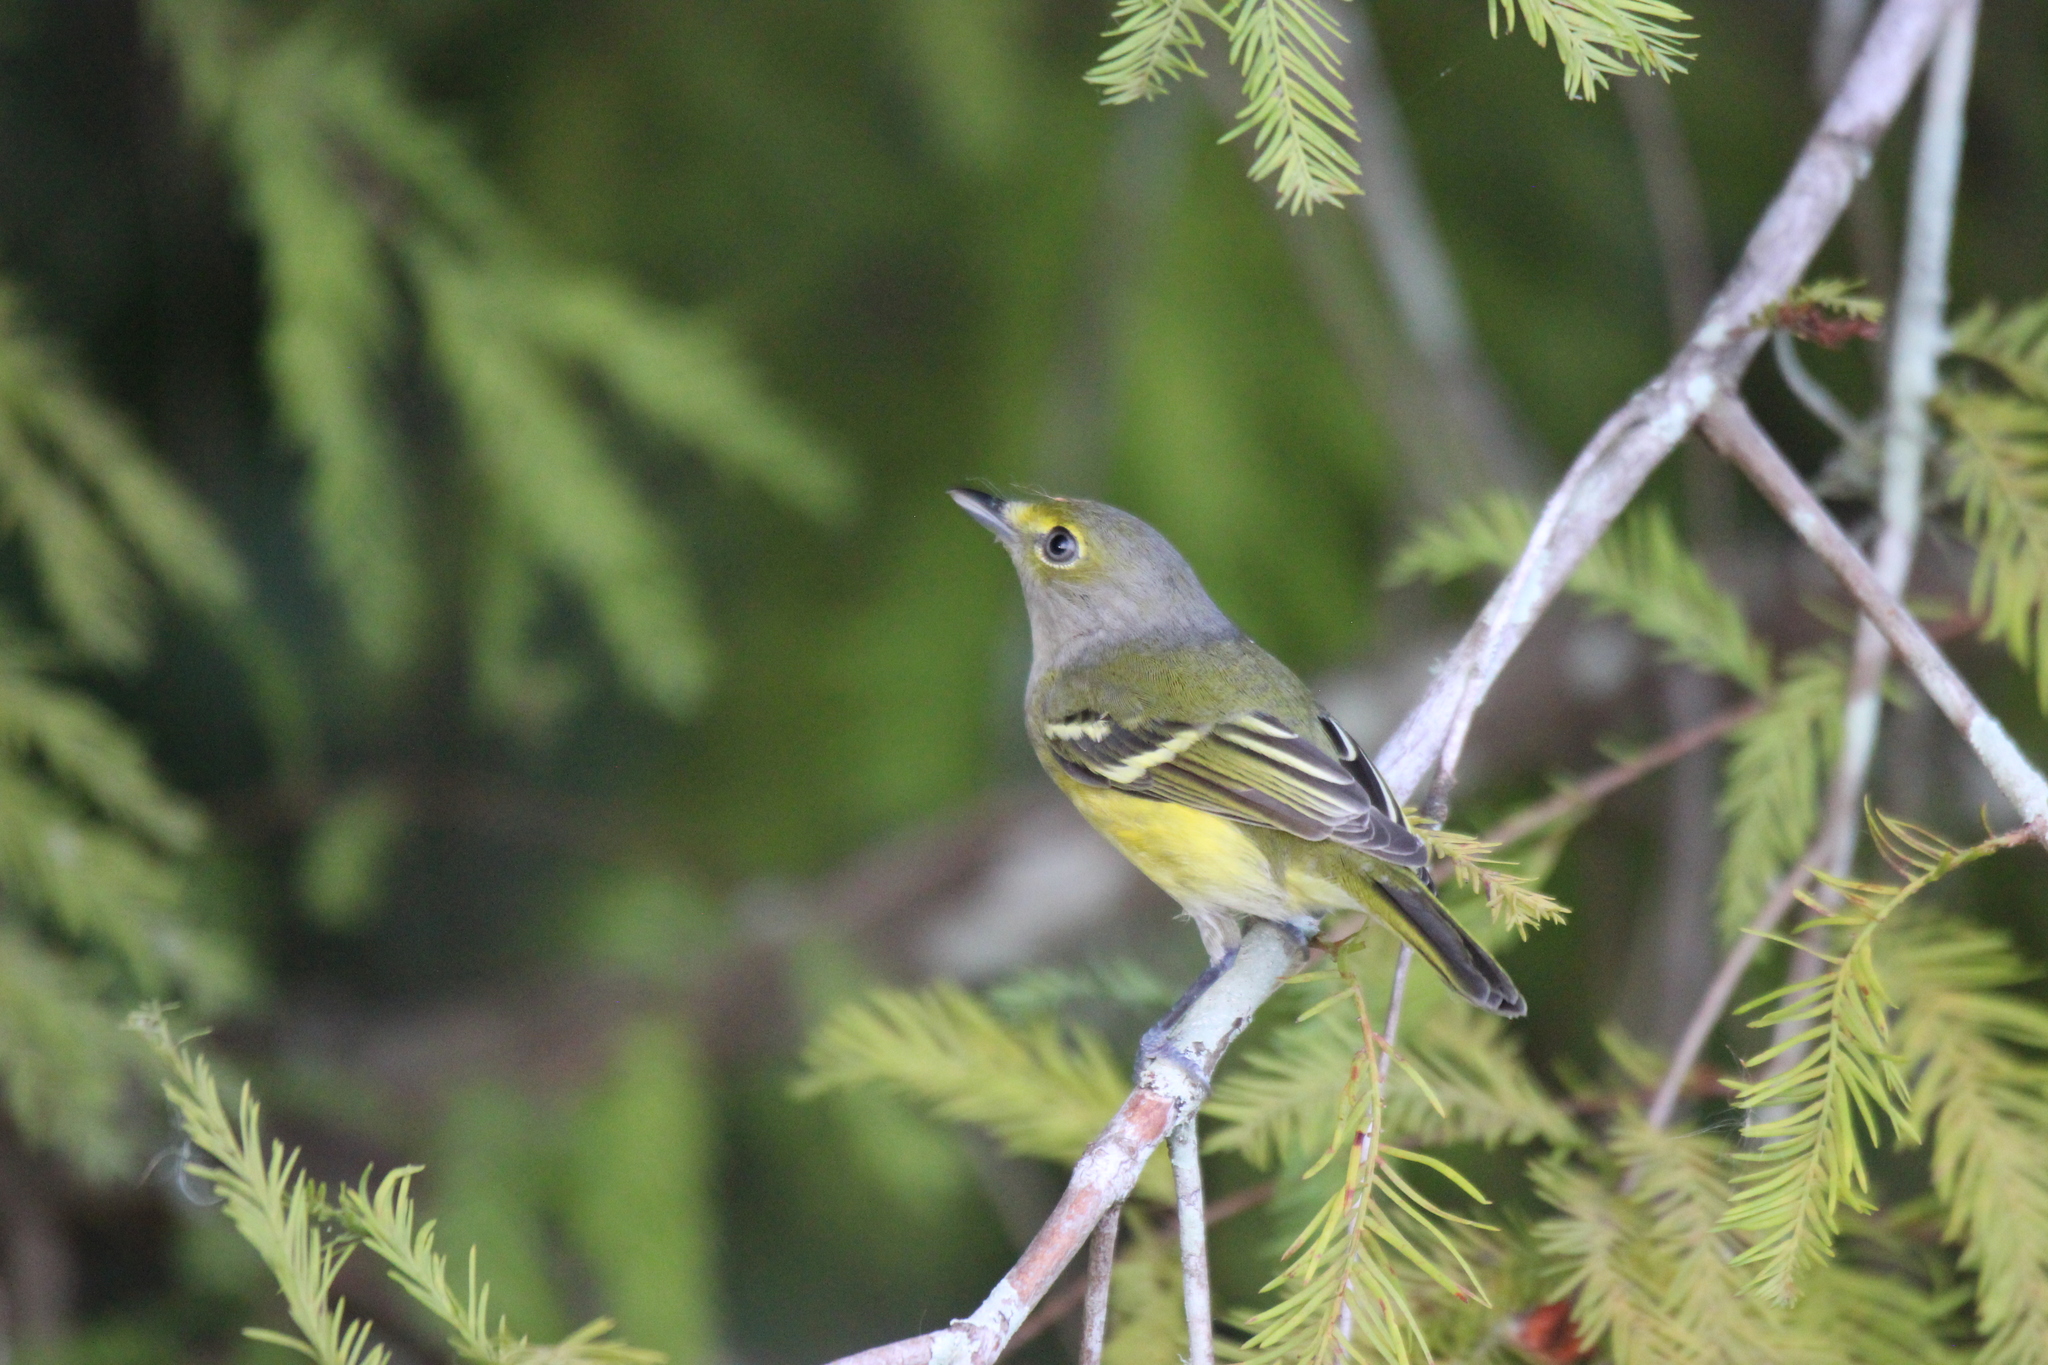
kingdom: Animalia
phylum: Chordata
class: Aves
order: Passeriformes
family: Vireonidae
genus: Vireo
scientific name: Vireo griseus
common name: White-eyed vireo
